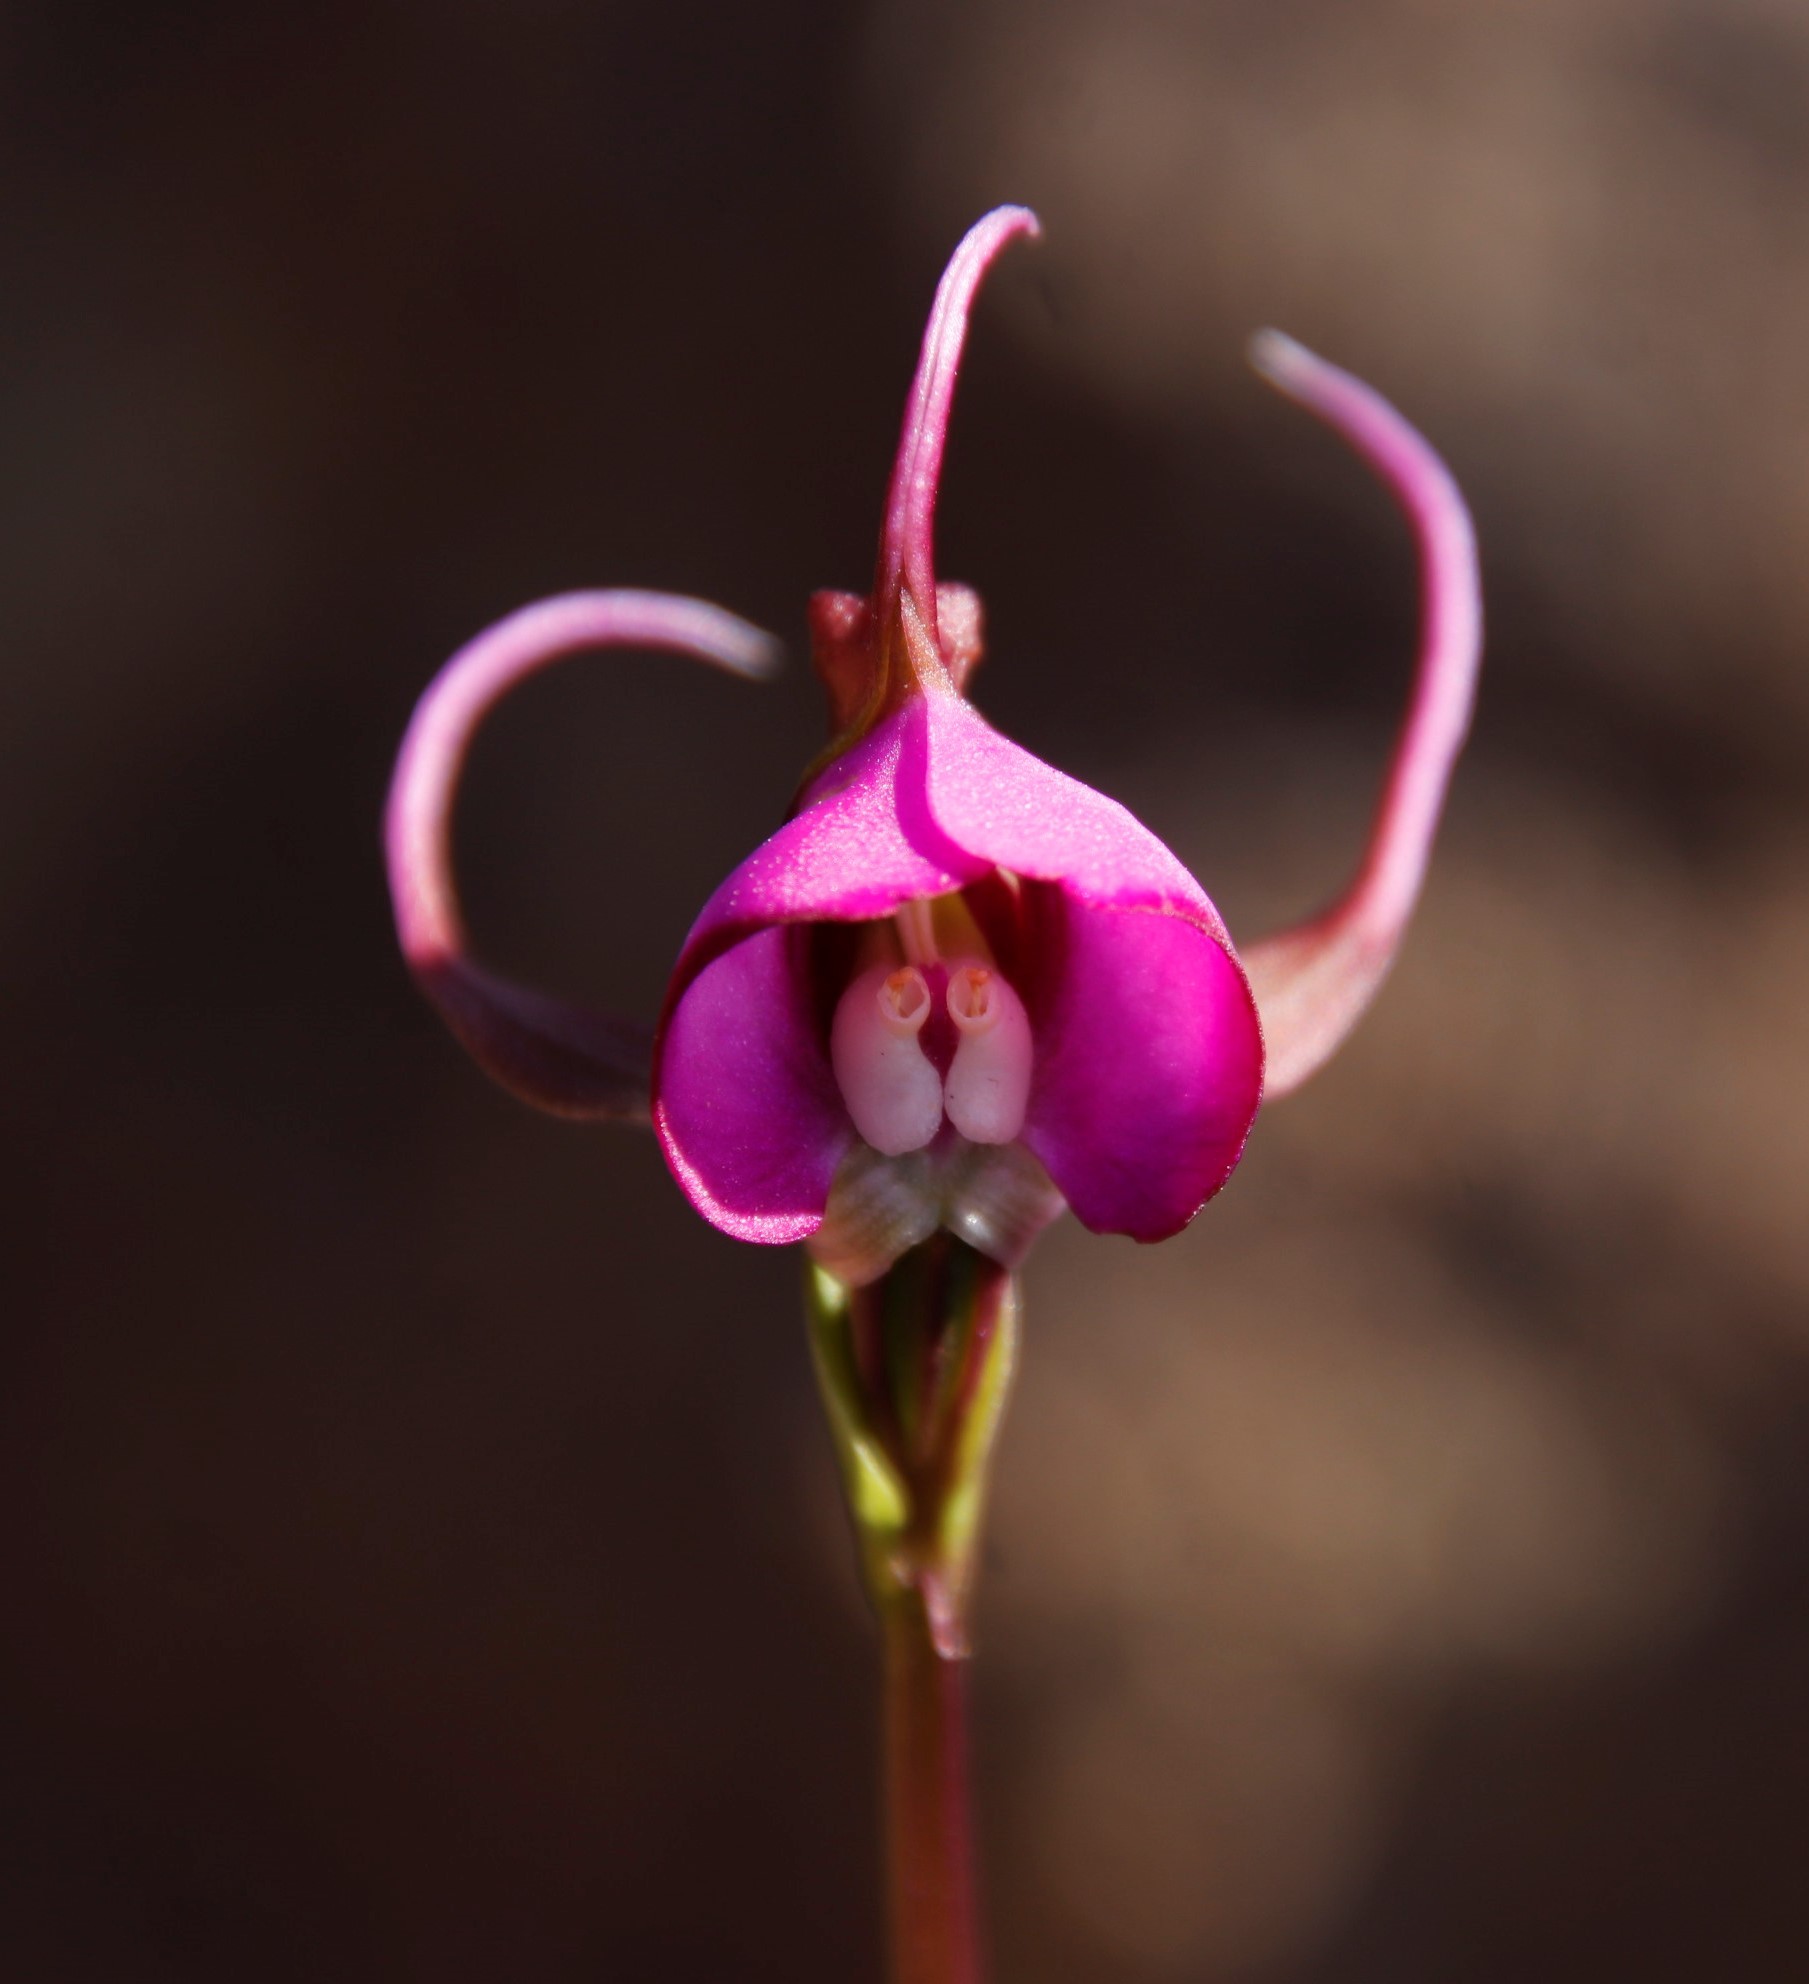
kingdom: Plantae
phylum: Tracheophyta
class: Liliopsida
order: Asparagales
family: Orchidaceae
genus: Disperis
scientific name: Disperis capensis
